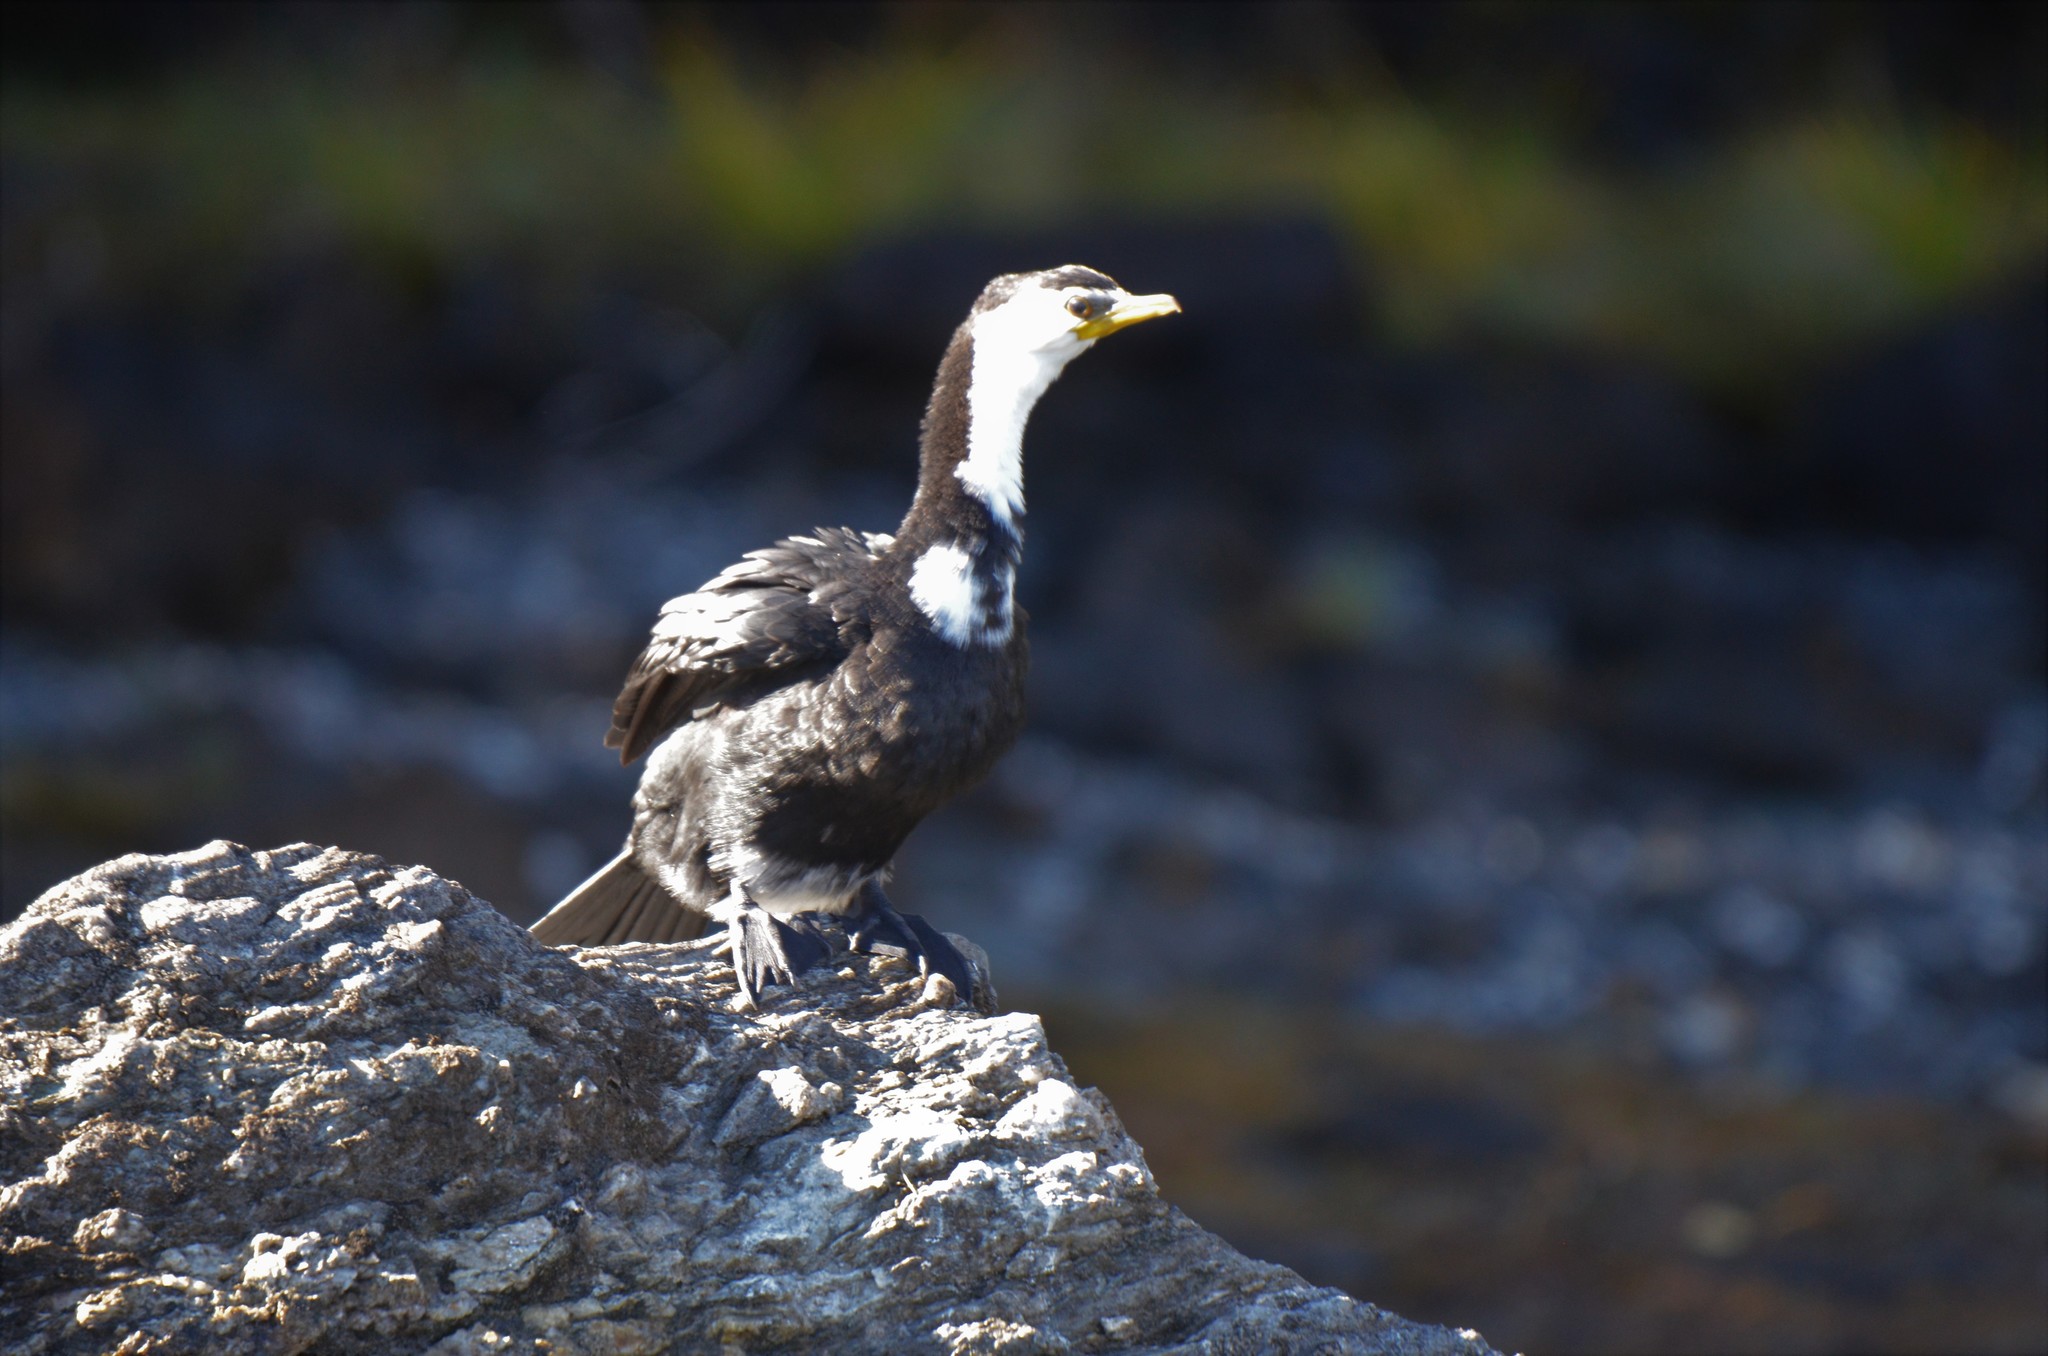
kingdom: Animalia
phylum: Chordata
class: Aves
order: Suliformes
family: Phalacrocoracidae
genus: Microcarbo
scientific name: Microcarbo melanoleucos
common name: Little pied cormorant
